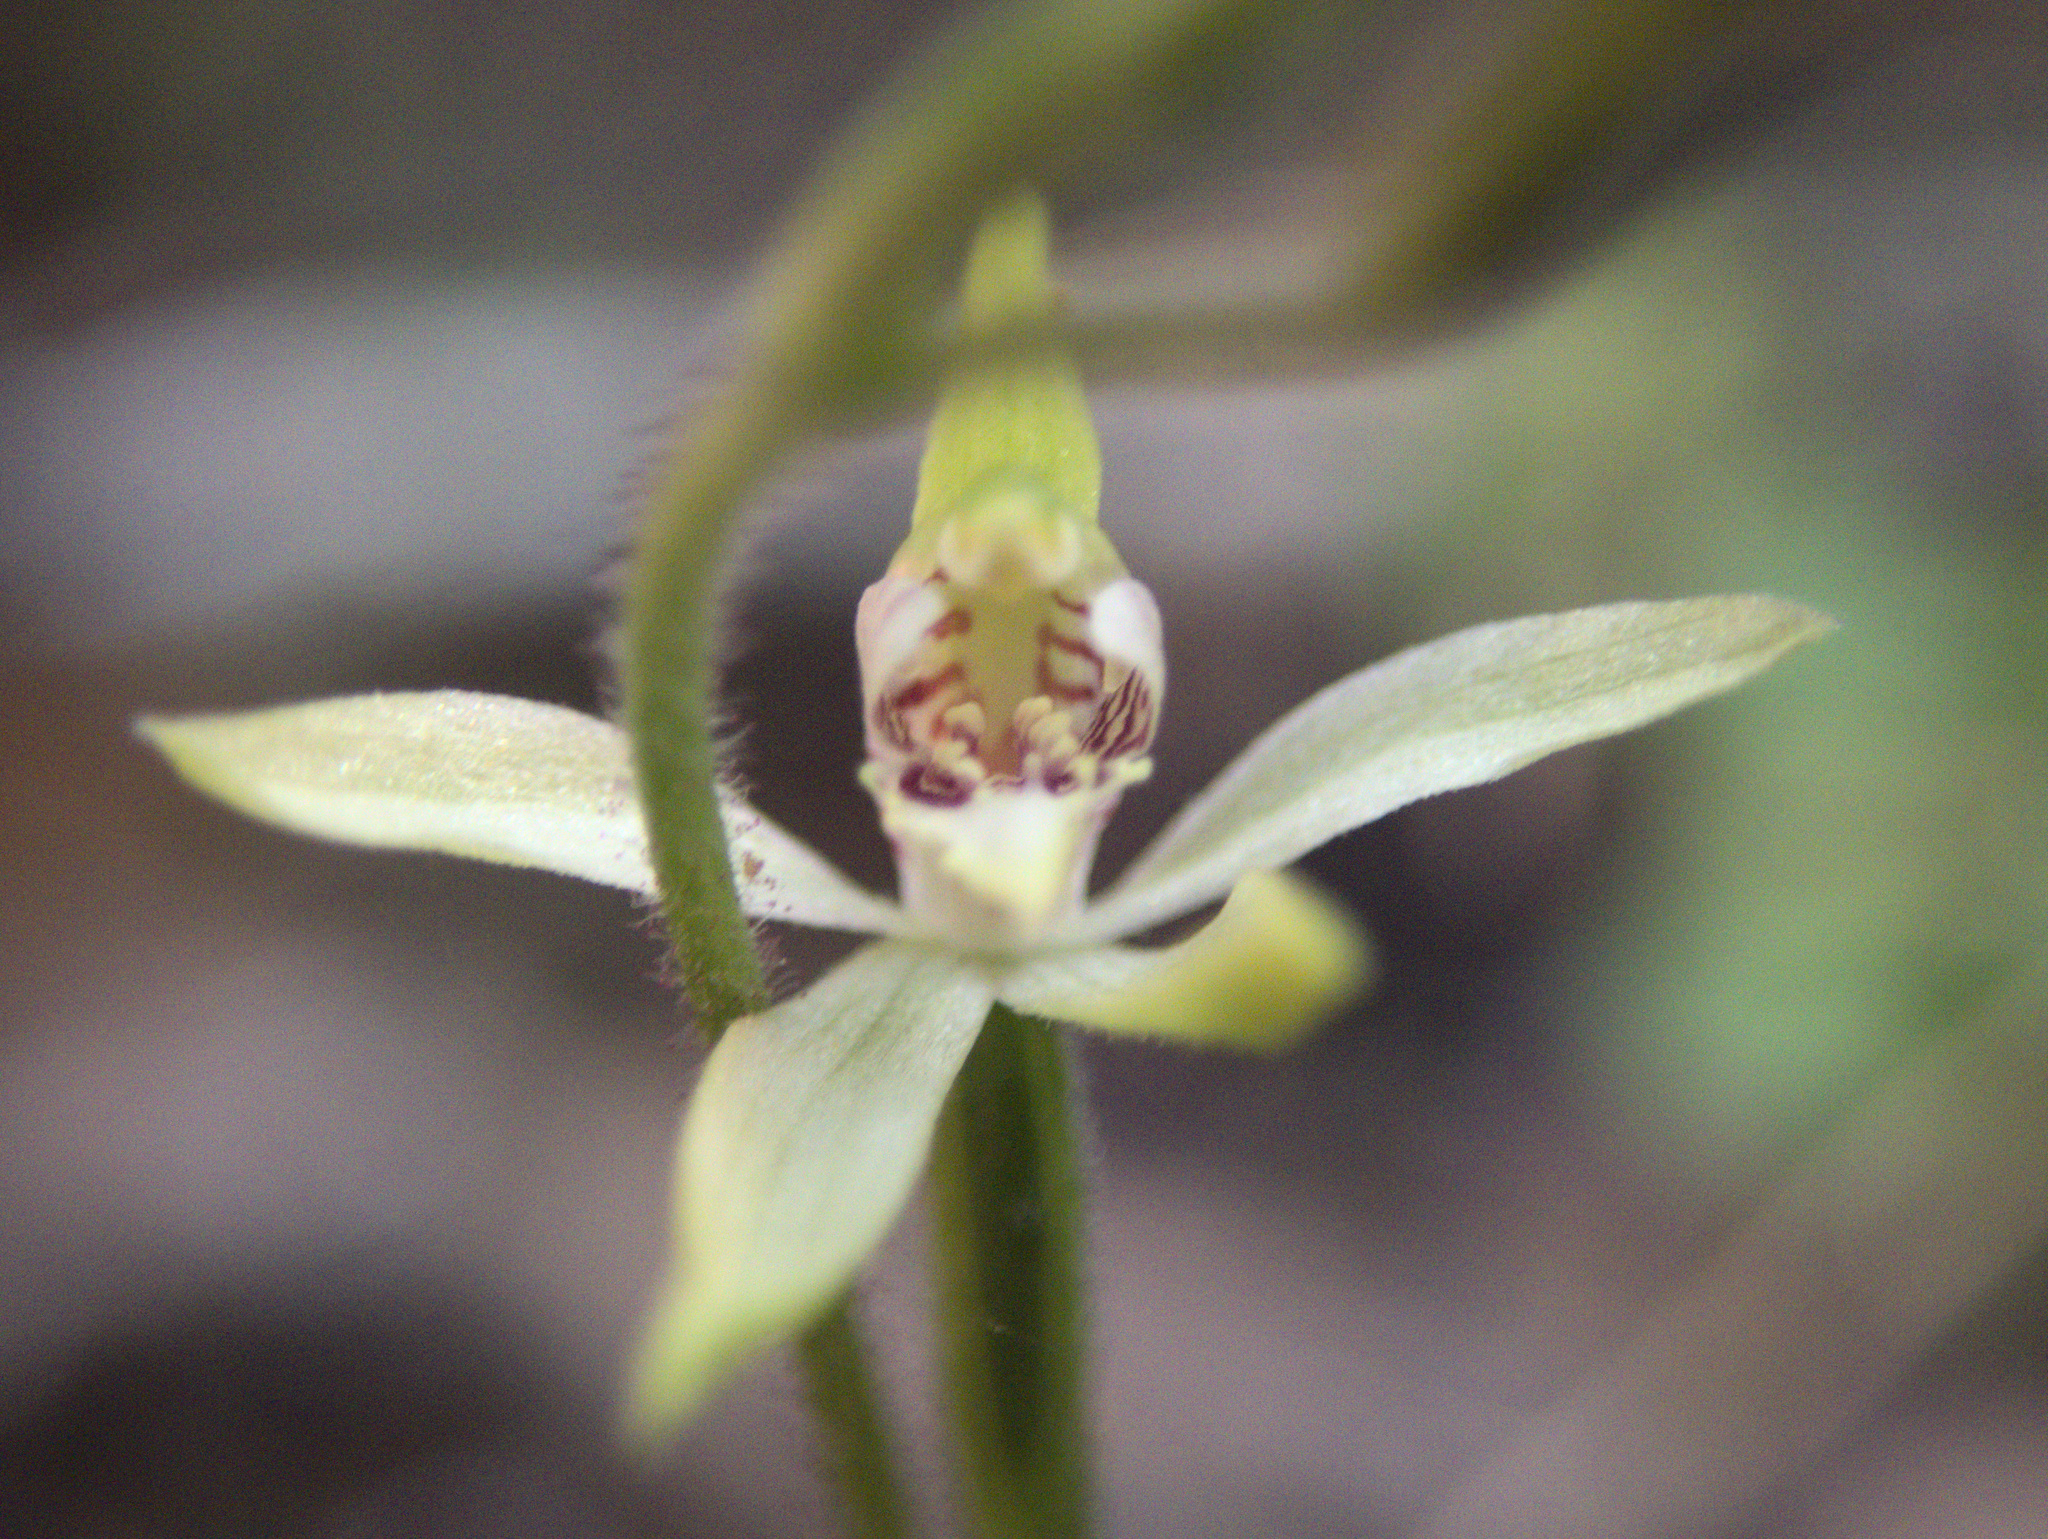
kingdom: Plantae
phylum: Tracheophyta
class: Liliopsida
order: Asparagales
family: Orchidaceae
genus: Caladenia
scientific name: Caladenia chlorostyla
